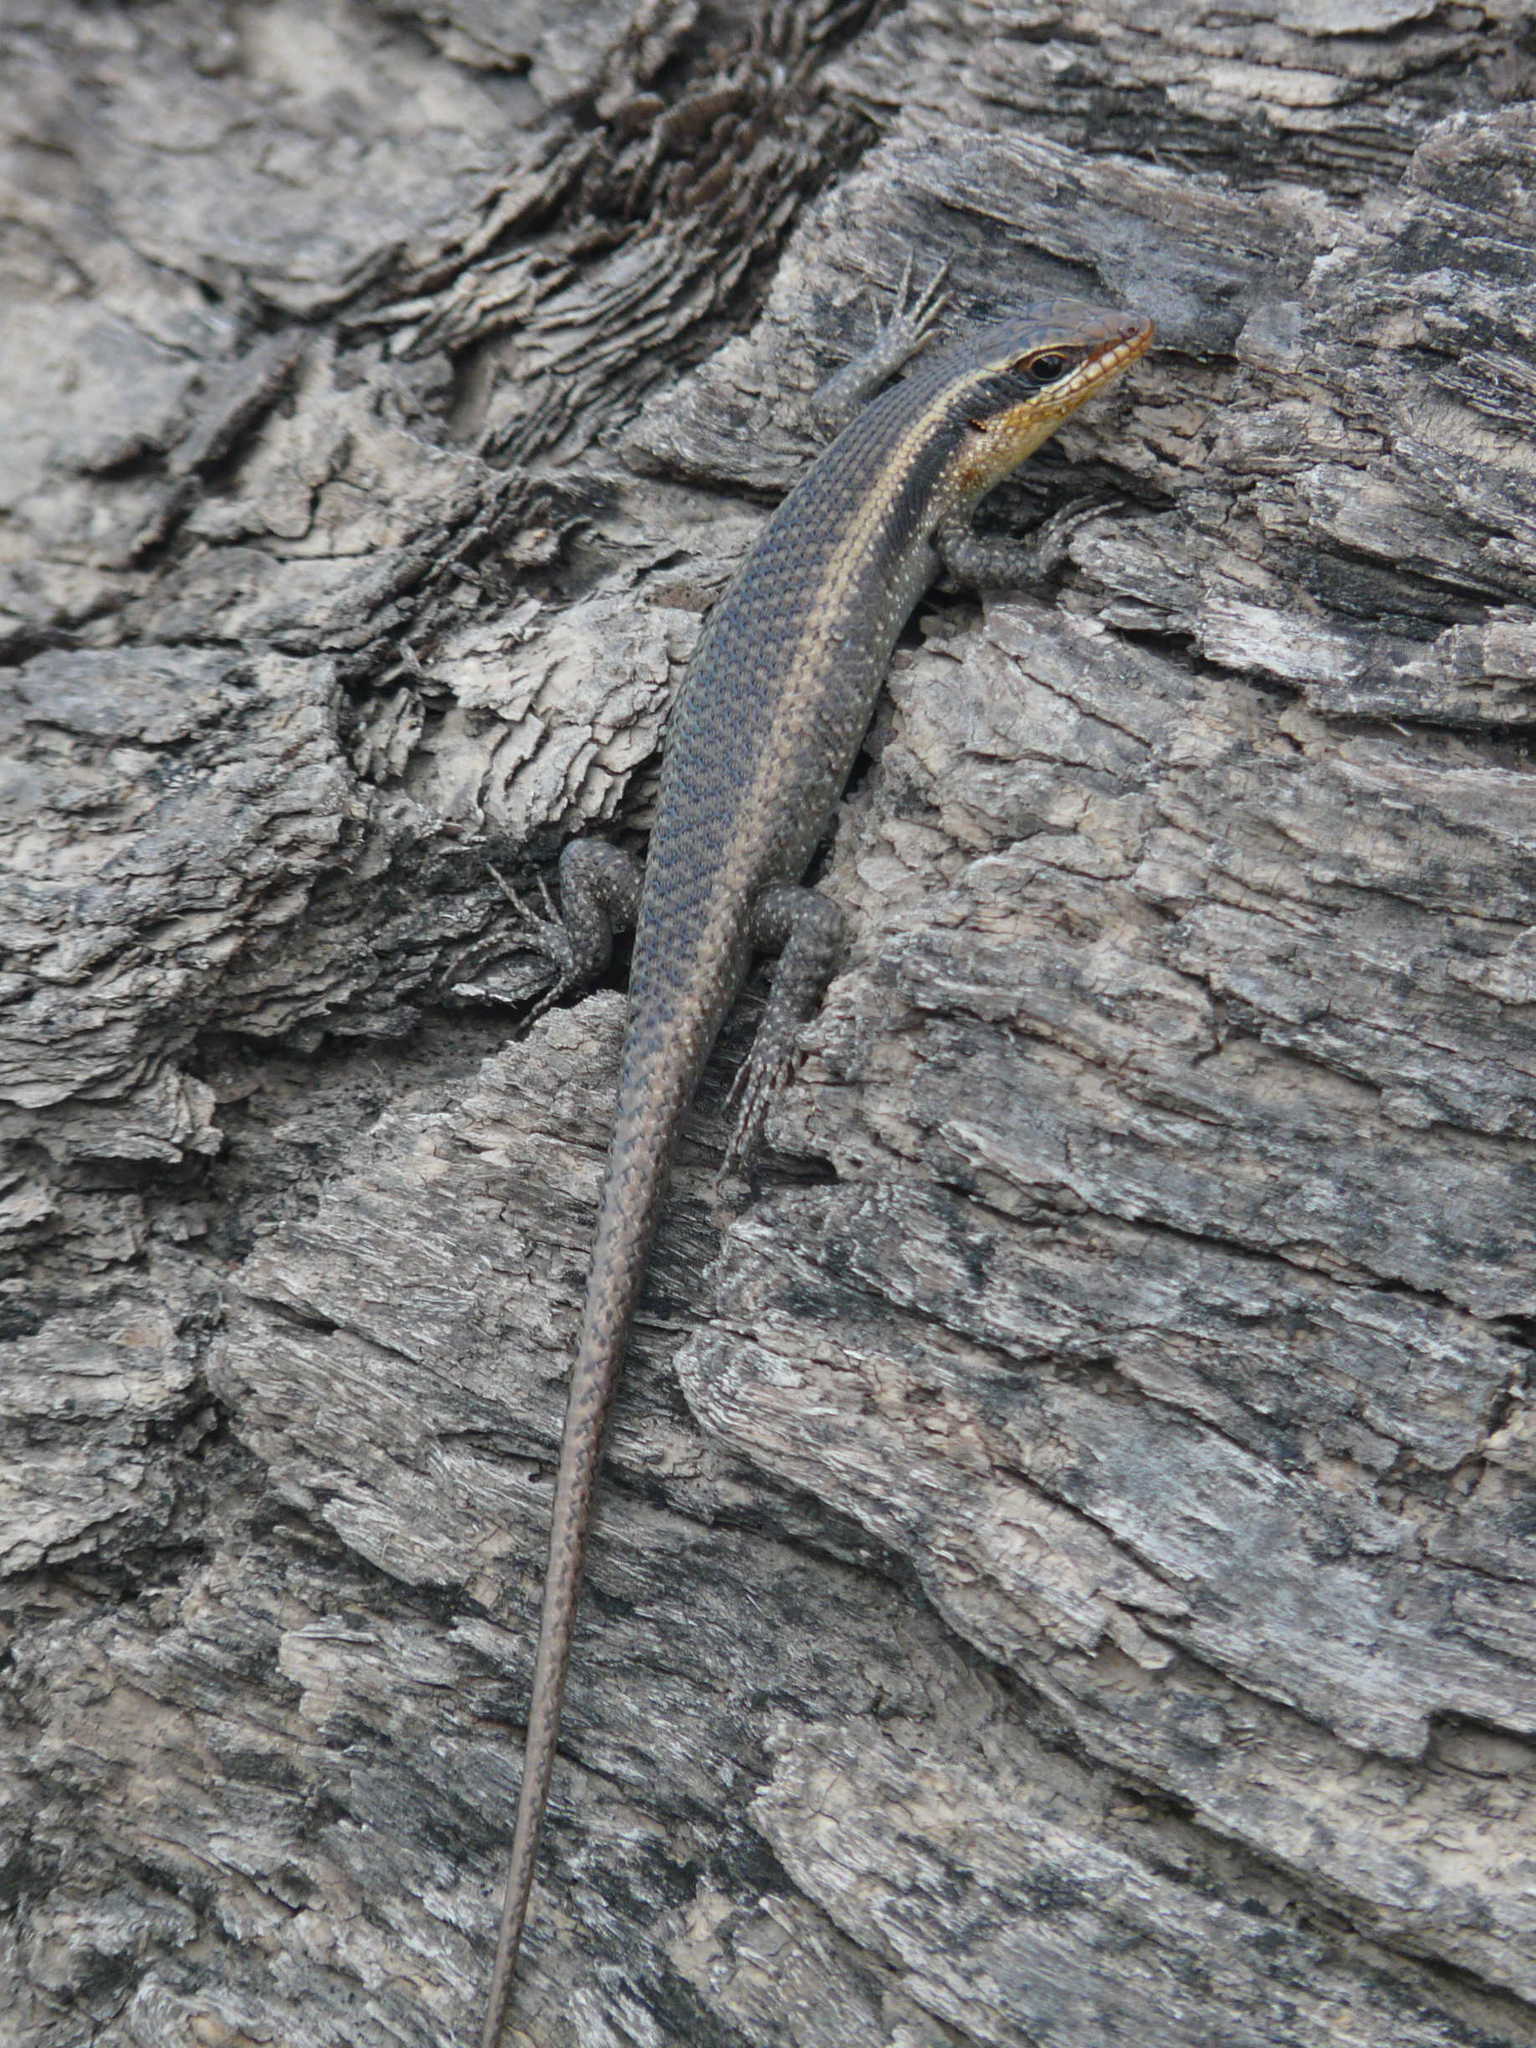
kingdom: Animalia
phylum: Chordata
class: Squamata
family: Scincidae
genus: Trachylepis
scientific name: Trachylepis wahlbergii
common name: Wahlberg’s striped skink
